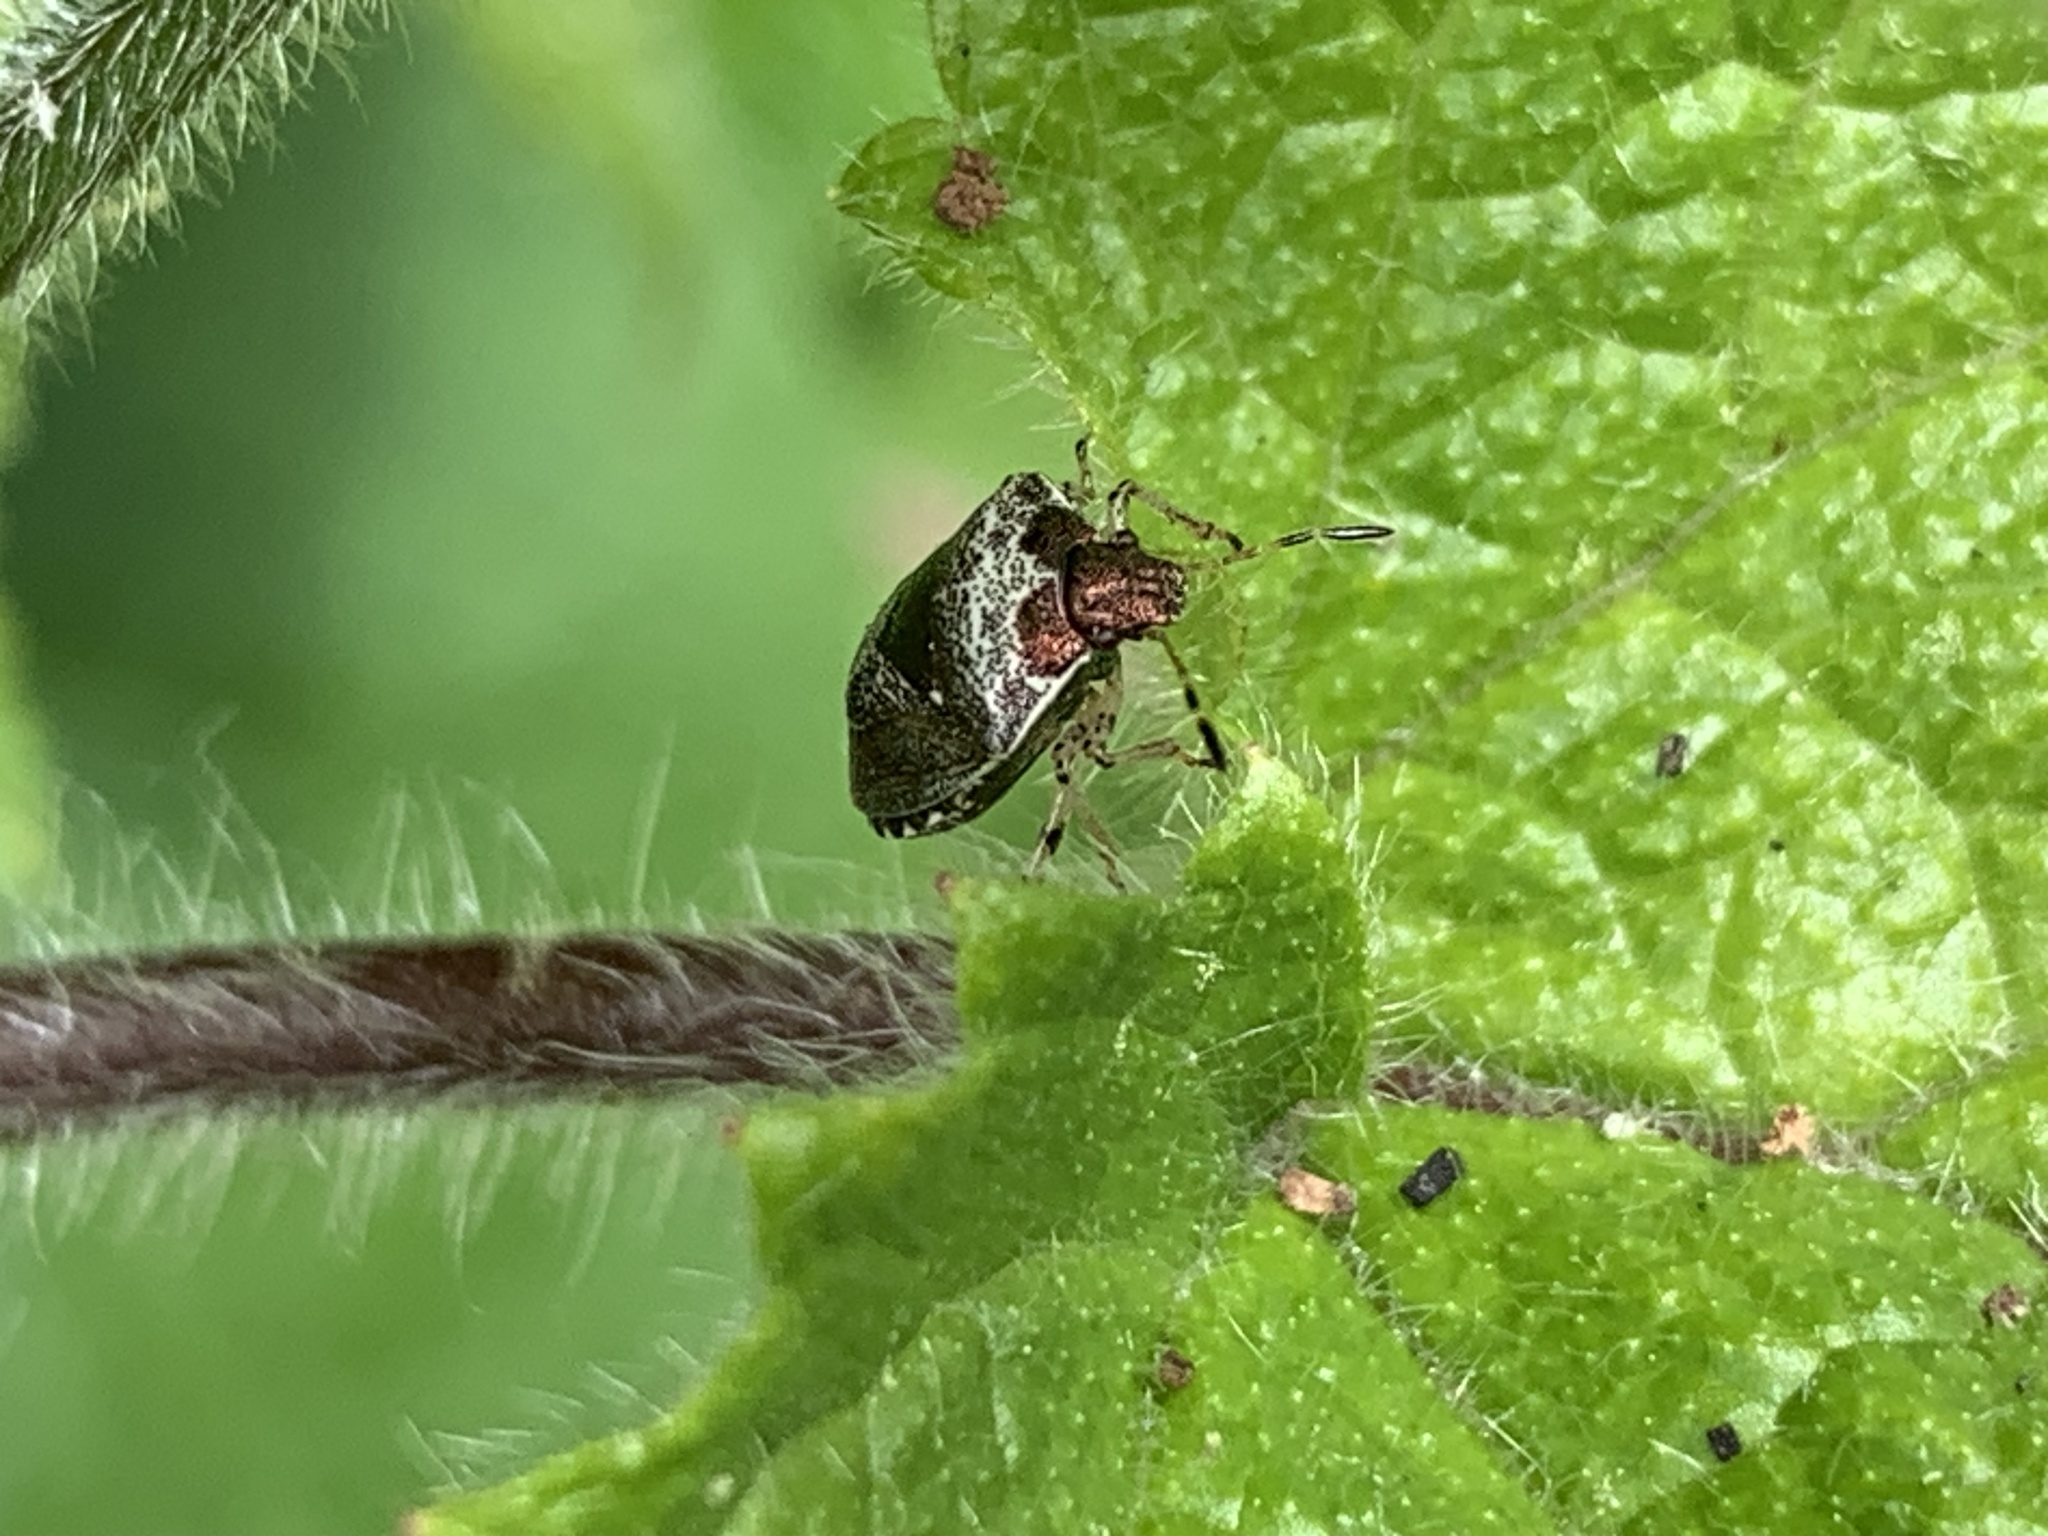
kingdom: Animalia
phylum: Arthropoda
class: Insecta
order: Hemiptera
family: Pentatomidae
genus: Eysarcoris
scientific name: Eysarcoris venustissimus
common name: Woundwort shieldbug
